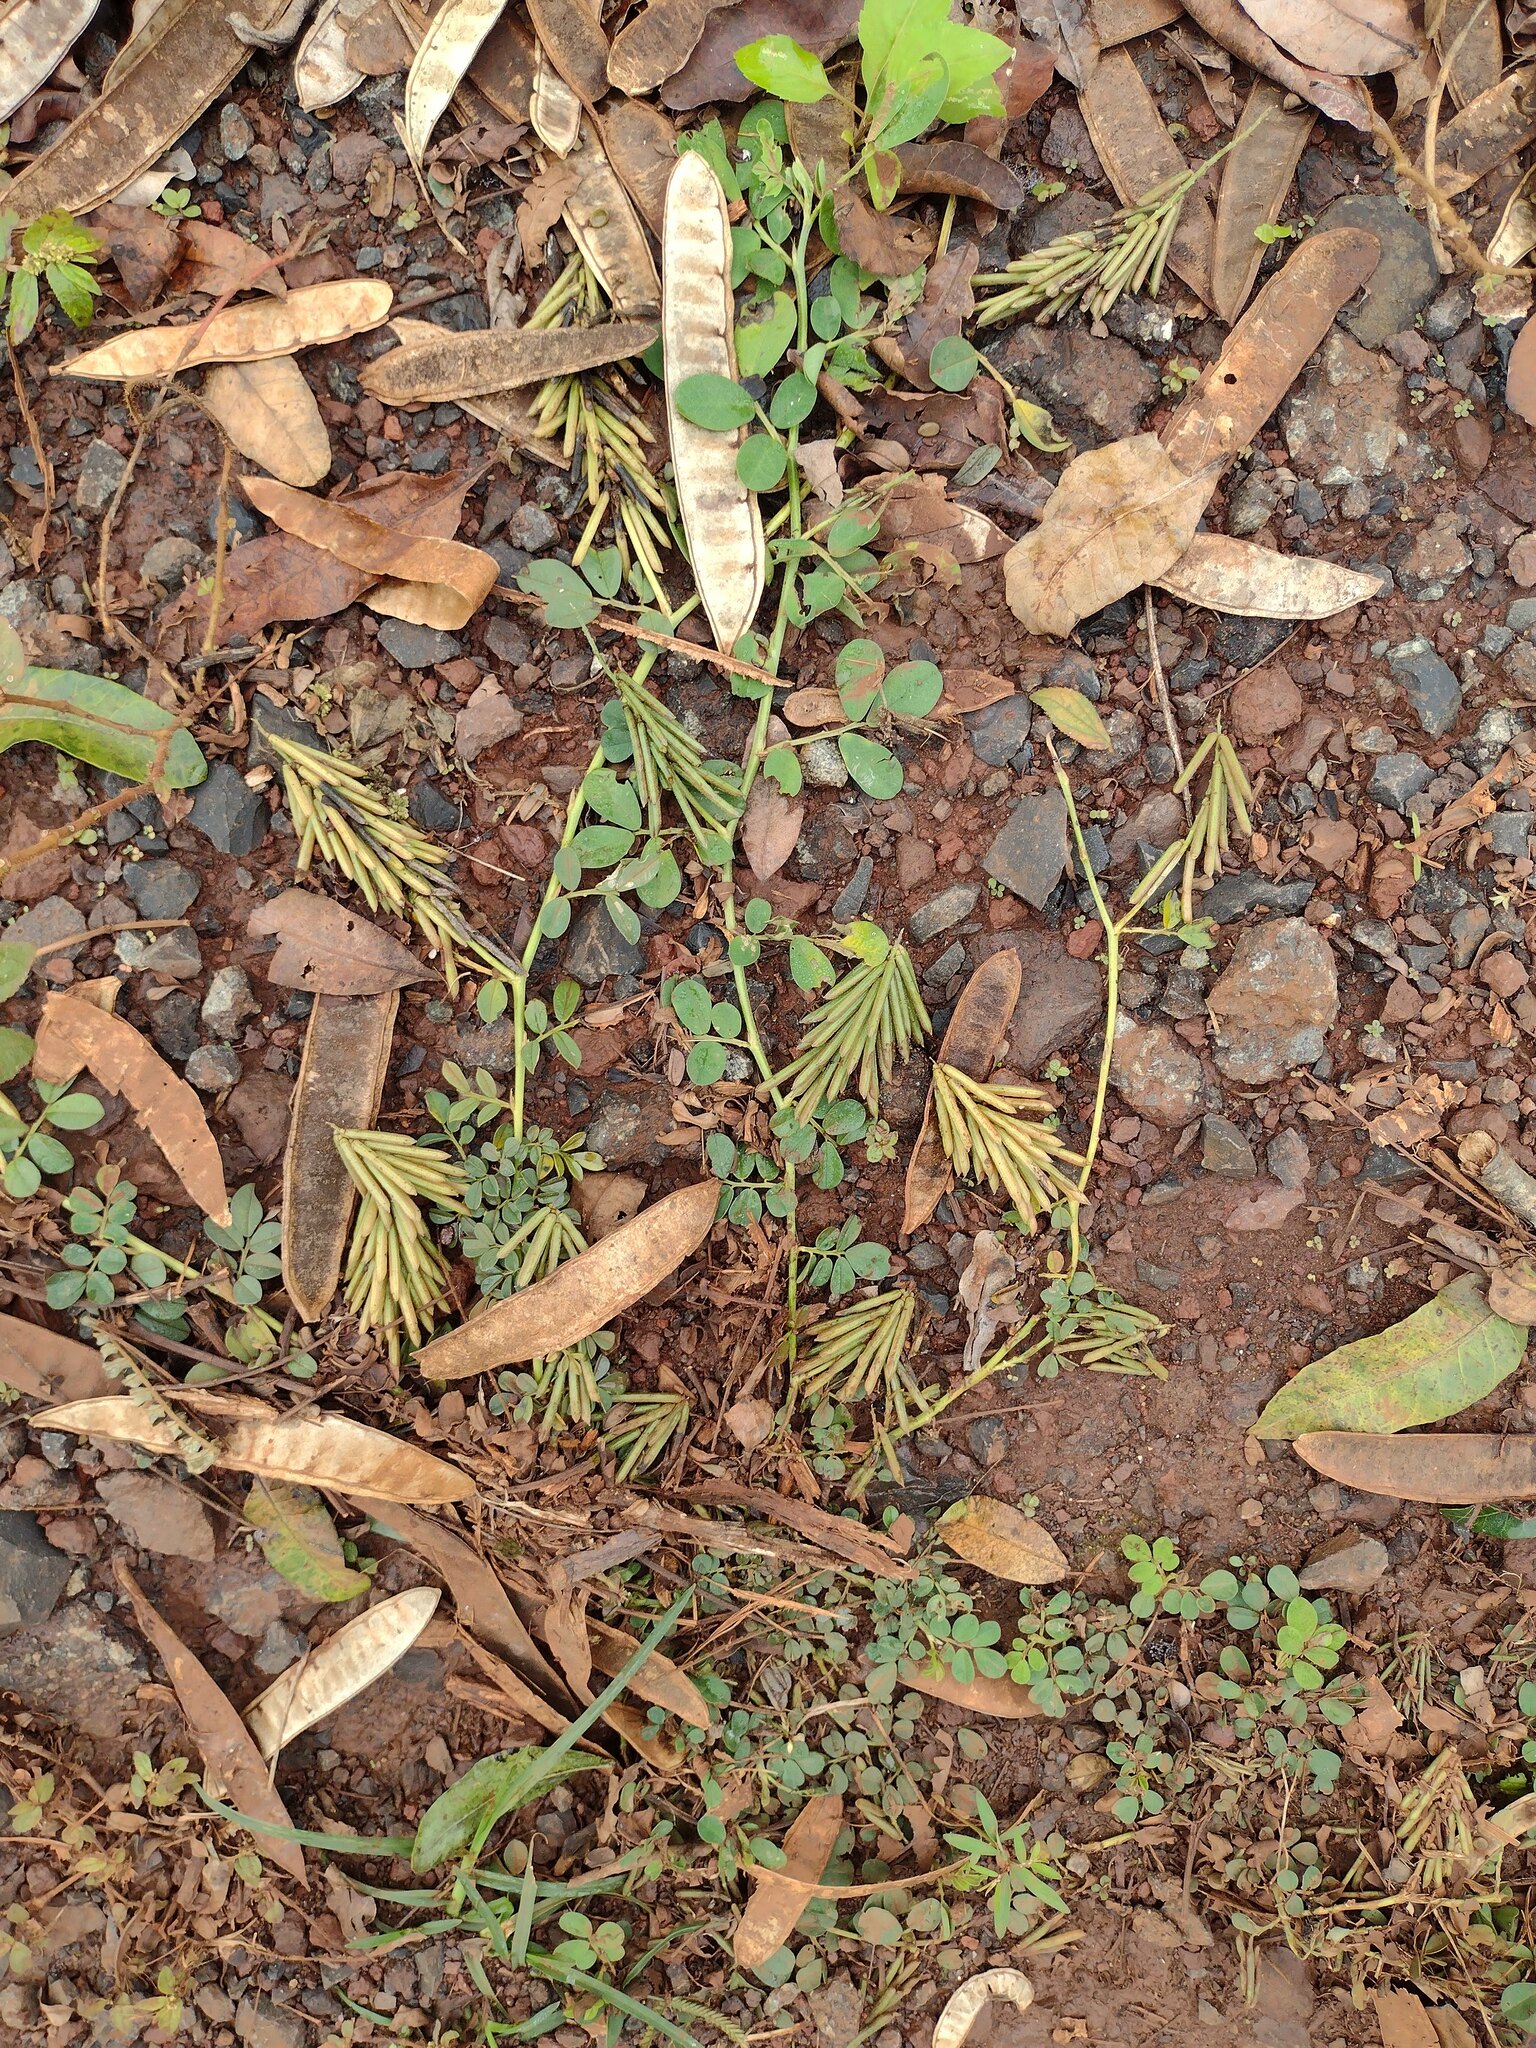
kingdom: Plantae
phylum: Tracheophyta
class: Magnoliopsida
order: Fabales
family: Fabaceae
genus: Indigofera
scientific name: Indigofera spicata
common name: Creeping indigo
